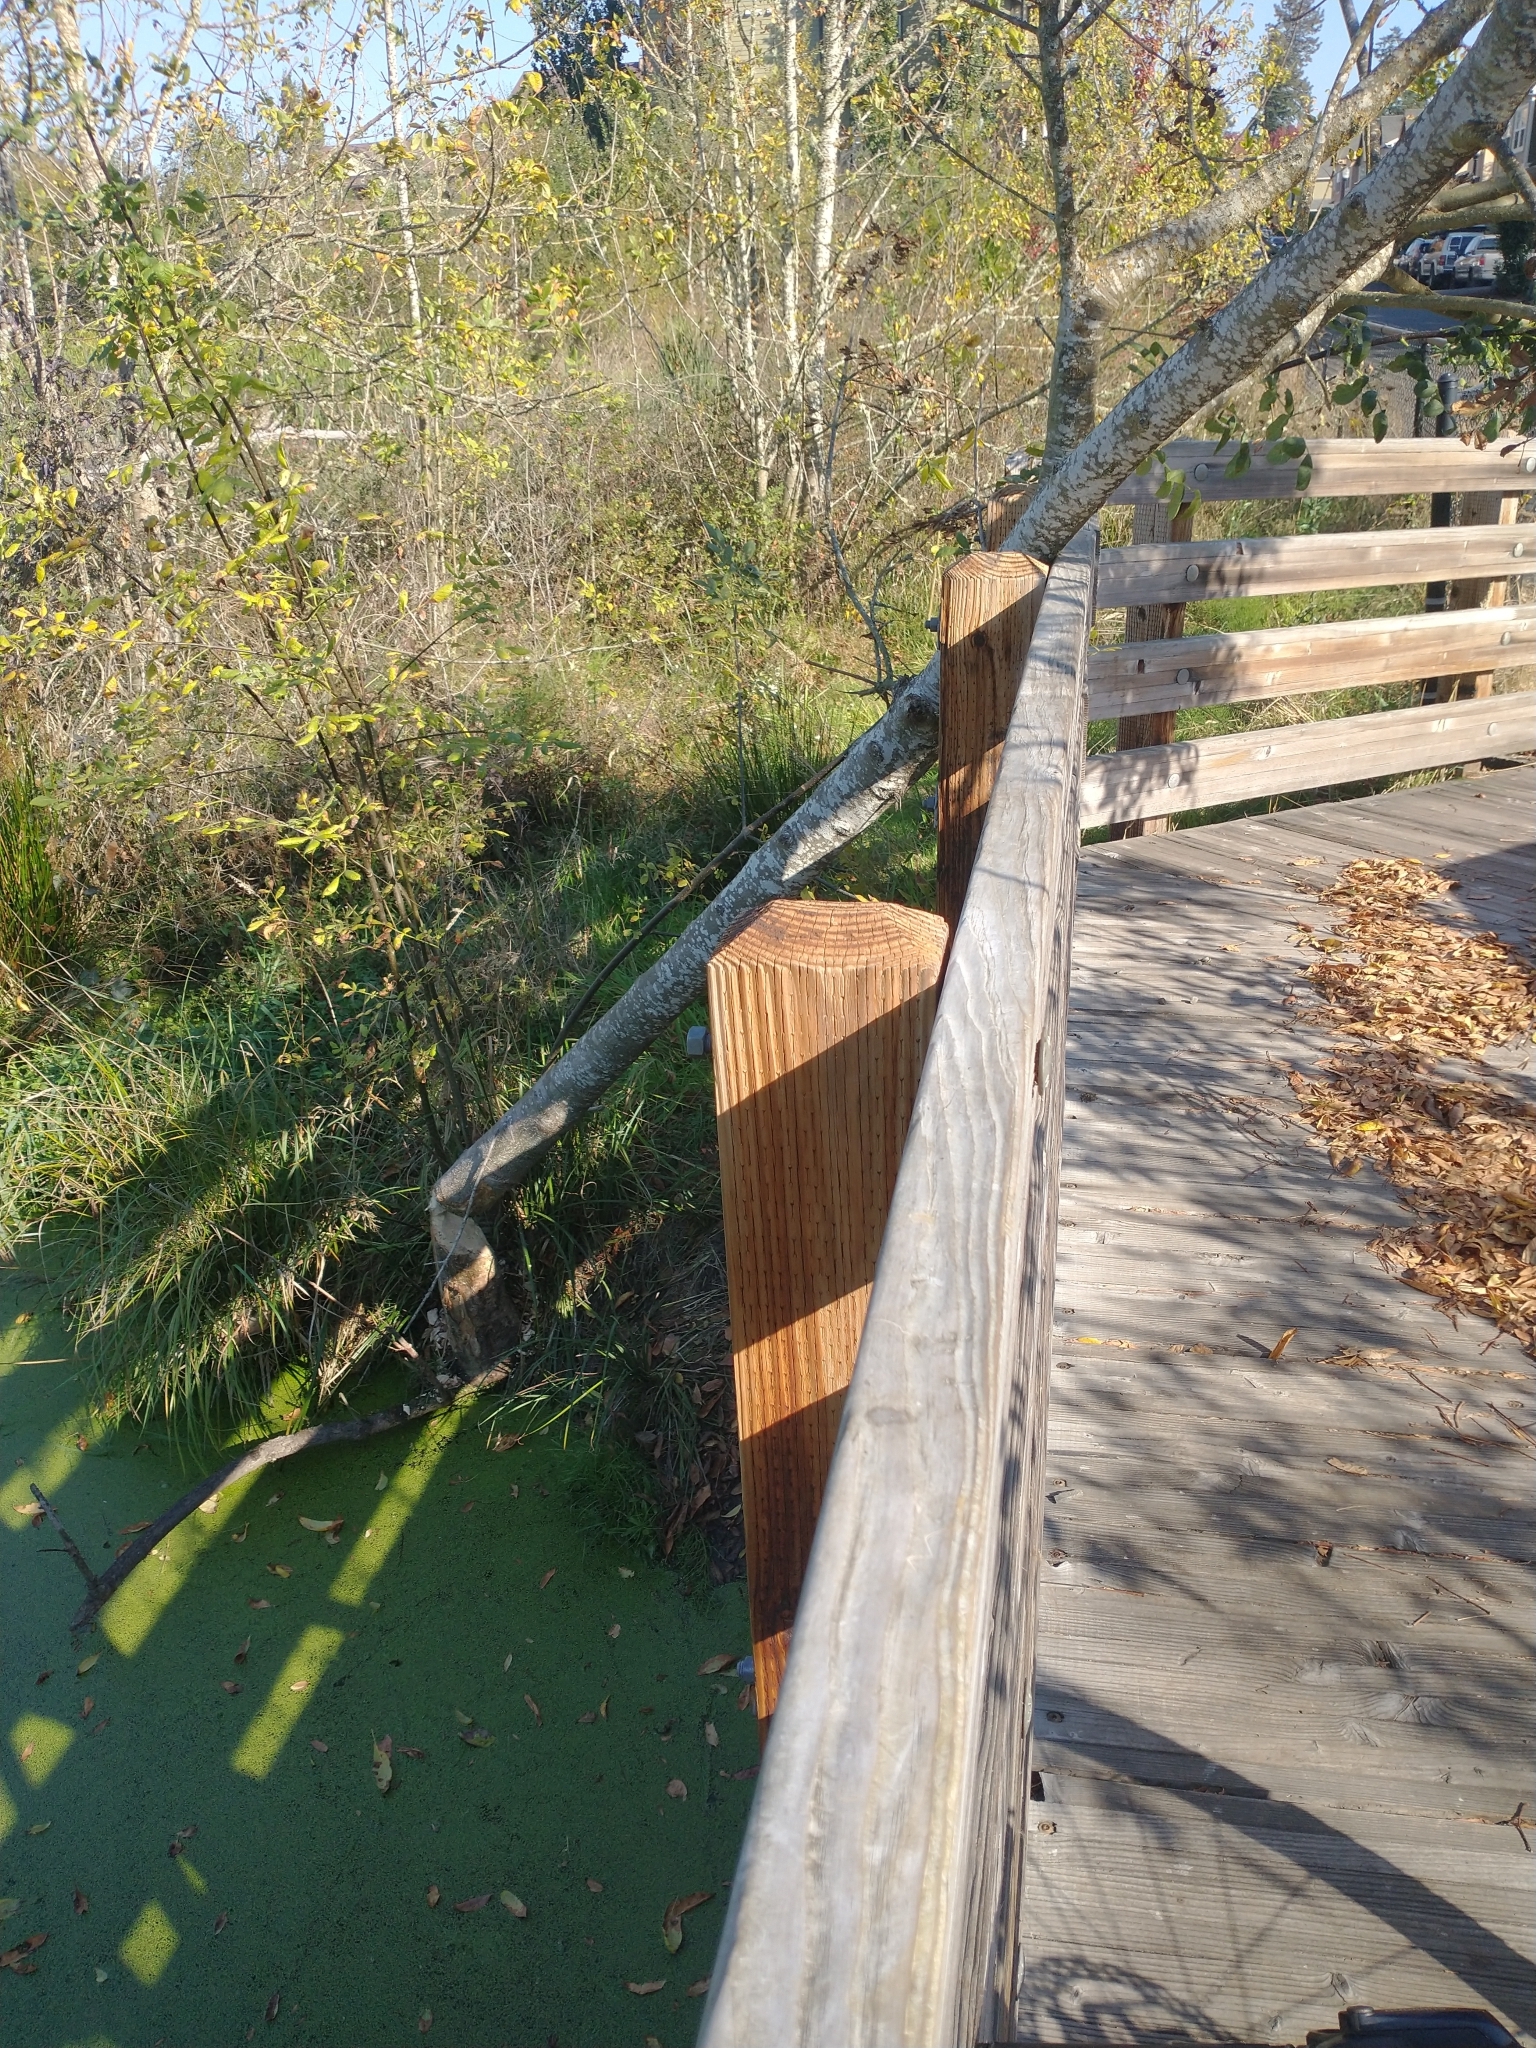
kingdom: Animalia
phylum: Chordata
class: Mammalia
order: Rodentia
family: Castoridae
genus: Castor
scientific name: Castor canadensis
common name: American beaver
